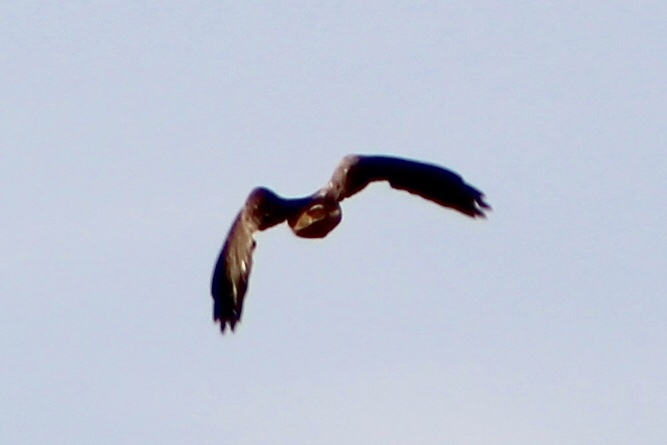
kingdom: Animalia
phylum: Chordata
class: Aves
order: Accipitriformes
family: Accipitridae
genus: Buteo
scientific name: Buteo regalis
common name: Ferruginous hawk
